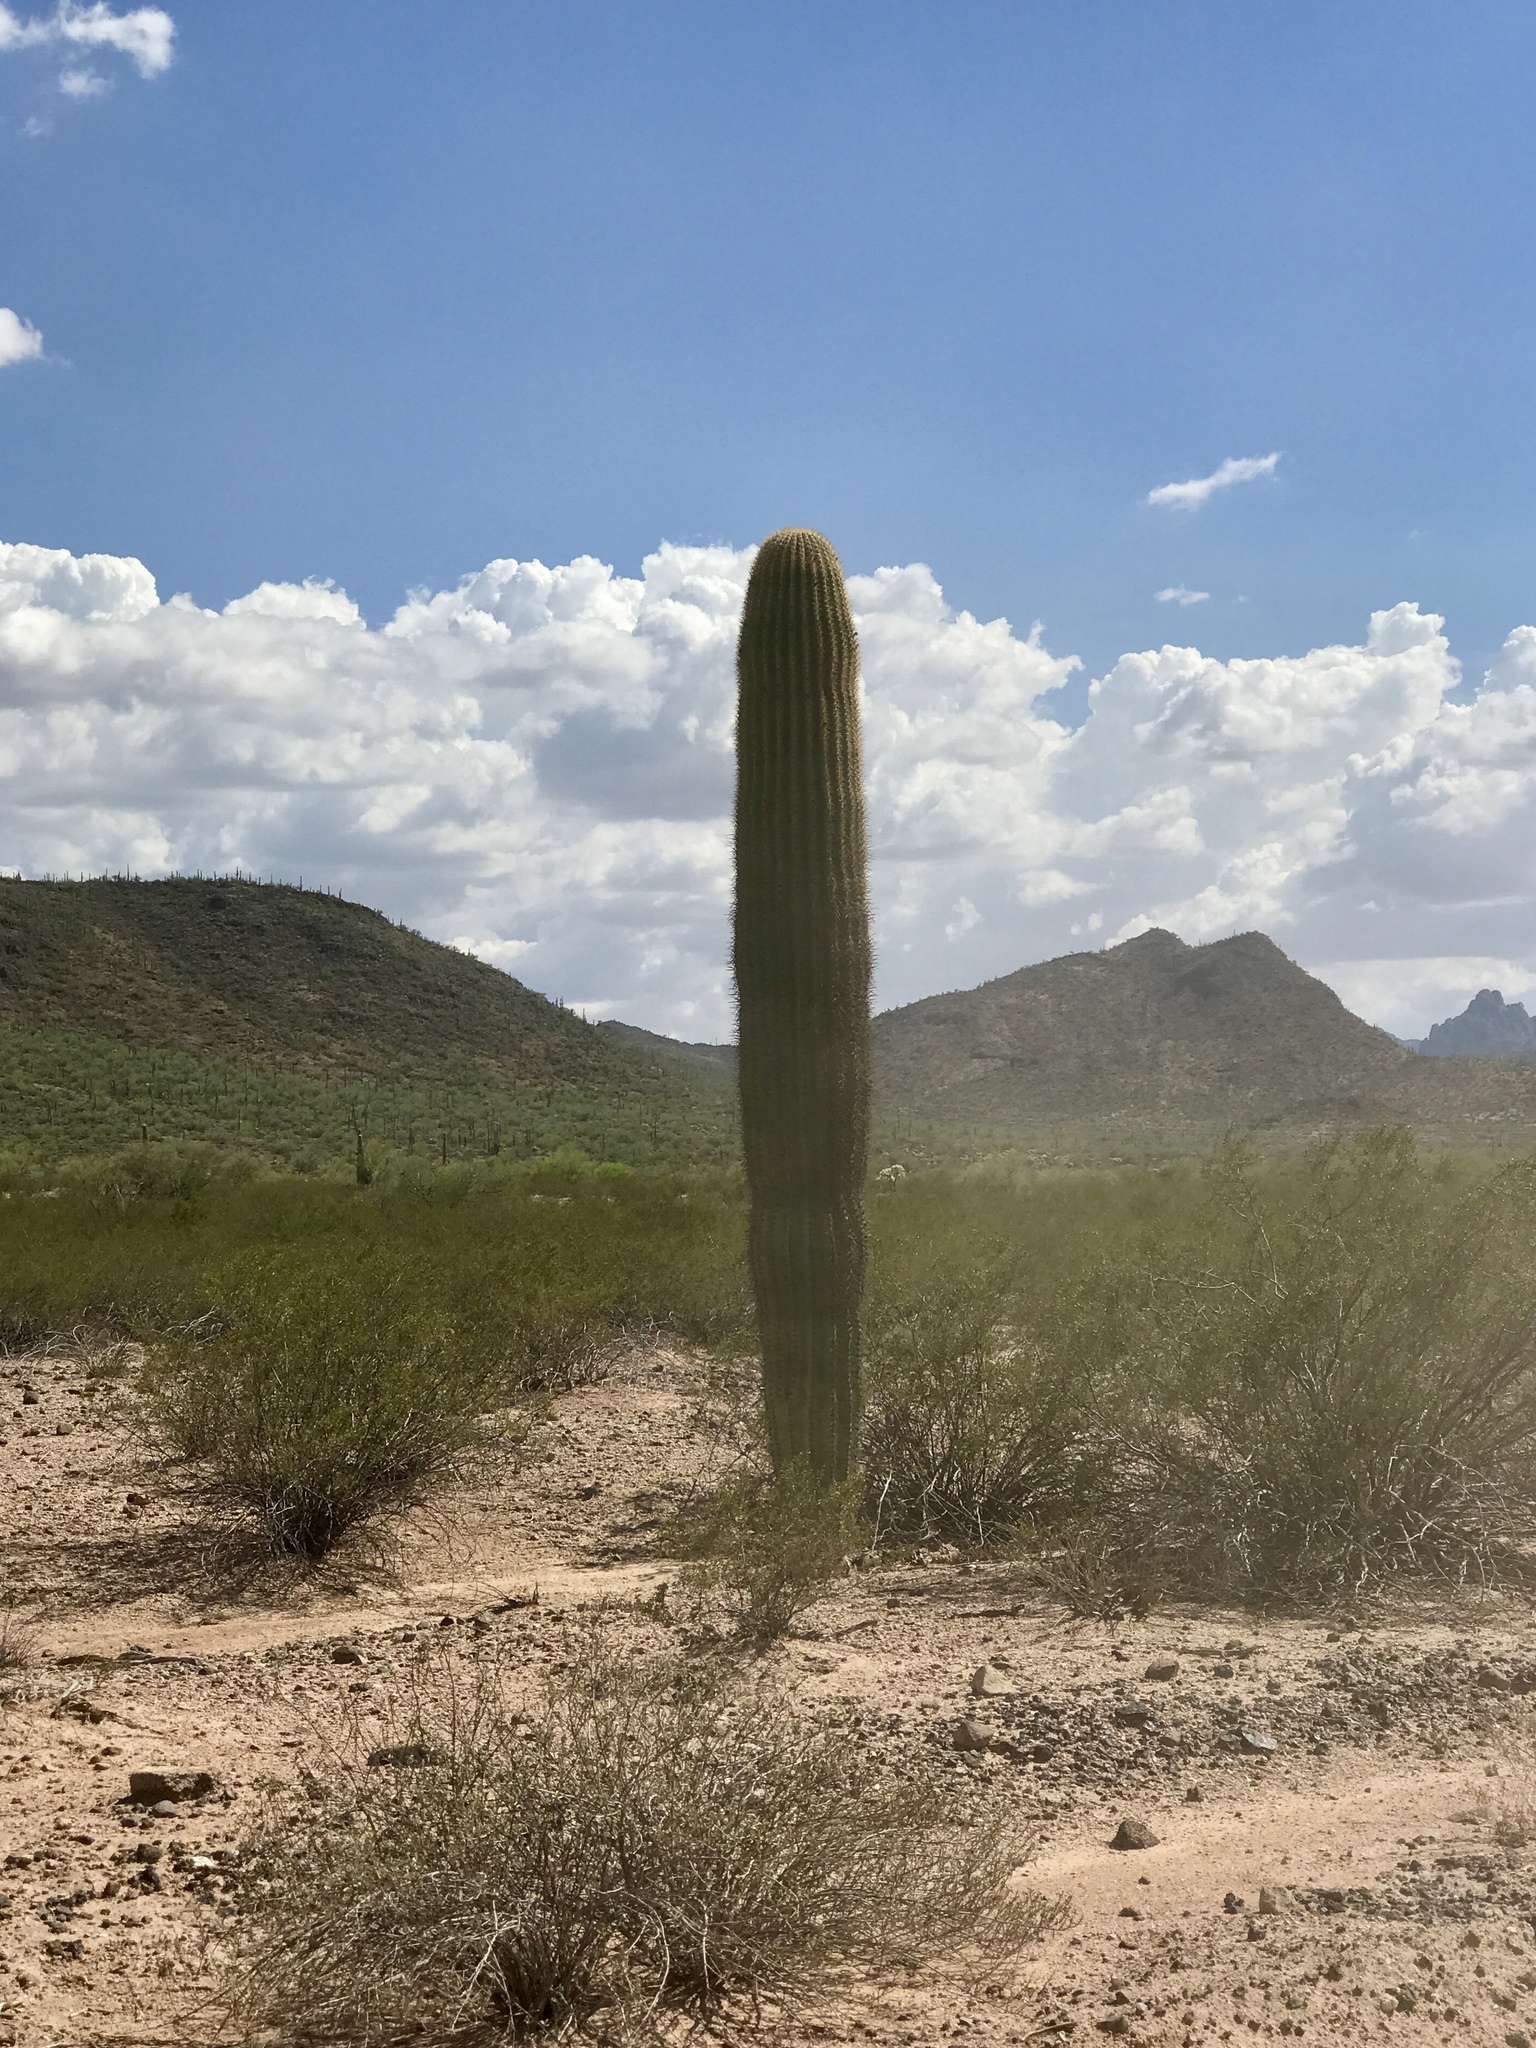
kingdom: Plantae
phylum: Tracheophyta
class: Magnoliopsida
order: Caryophyllales
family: Cactaceae
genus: Carnegiea
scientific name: Carnegiea gigantea
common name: Saguaro
